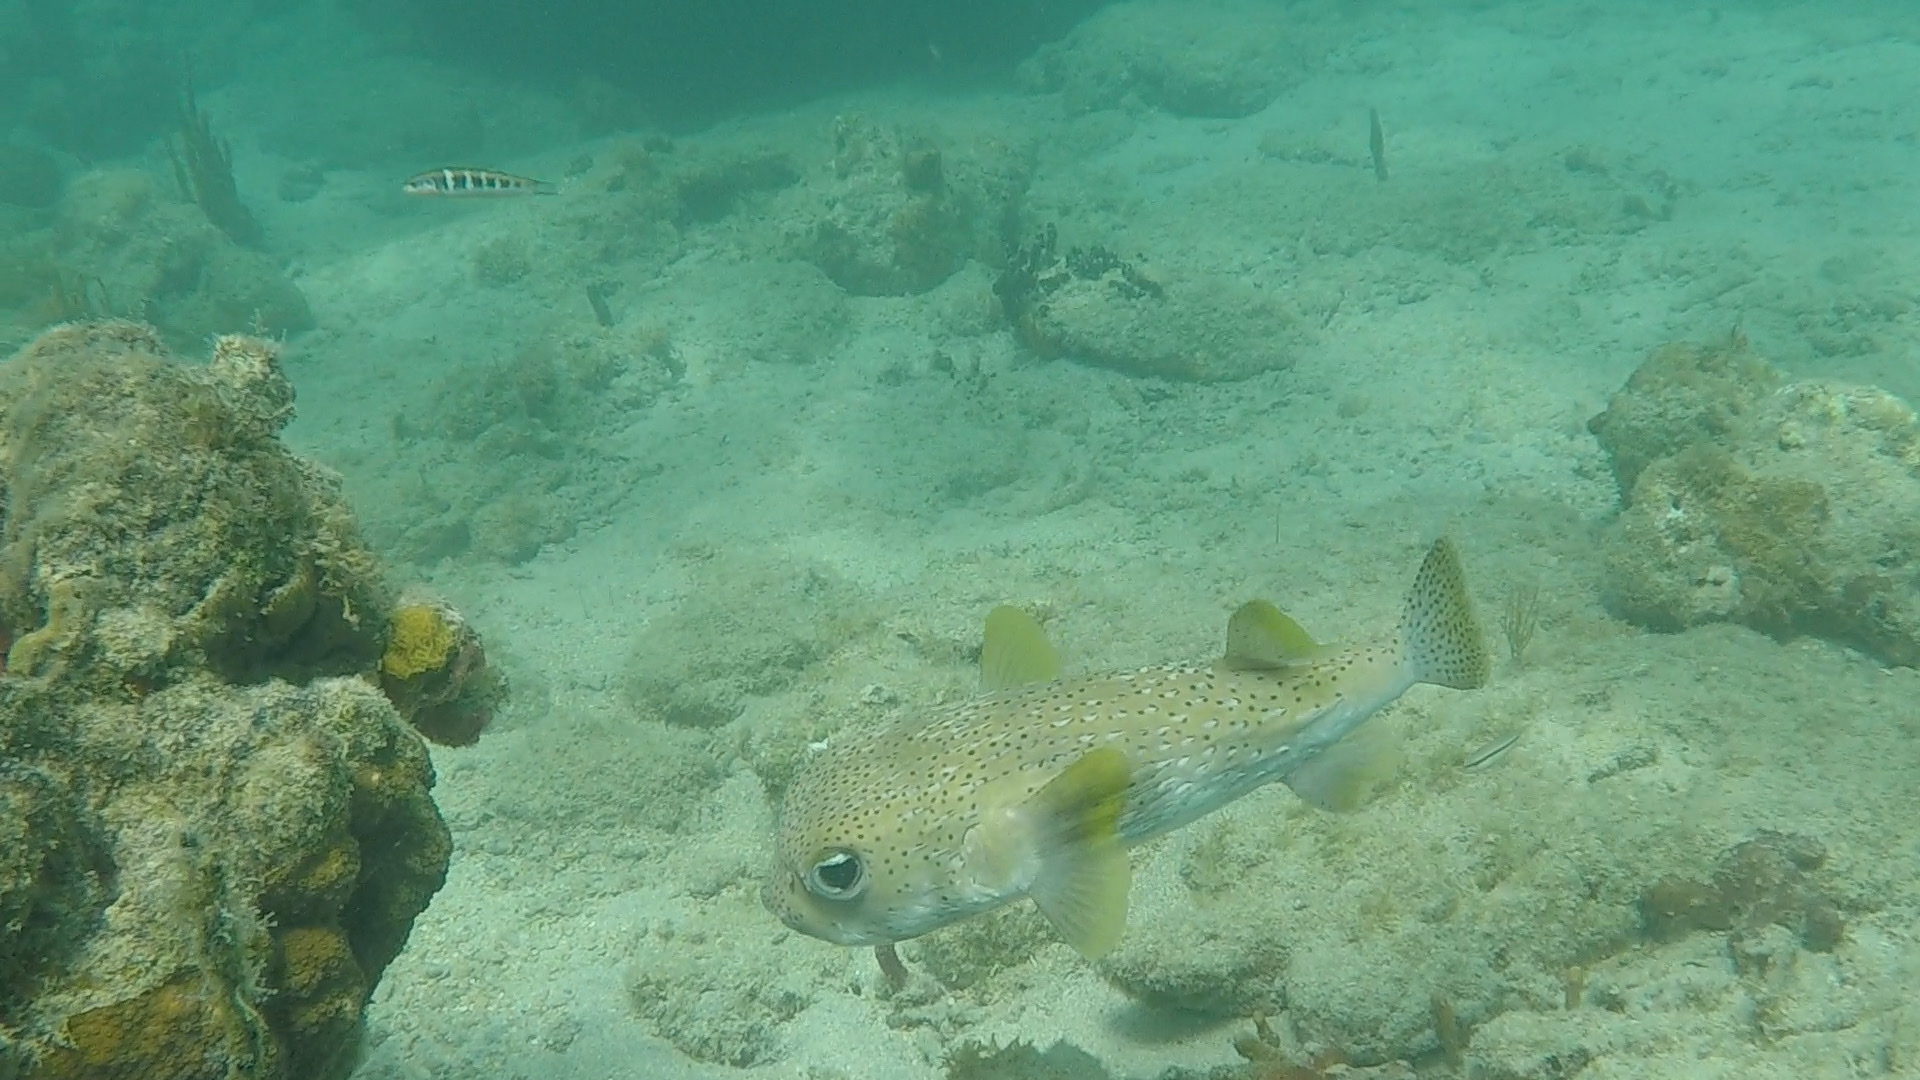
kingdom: Animalia
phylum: Chordata
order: Tetraodontiformes
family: Diodontidae
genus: Diodon
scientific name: Diodon hystrix
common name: Giant porcupinefish
